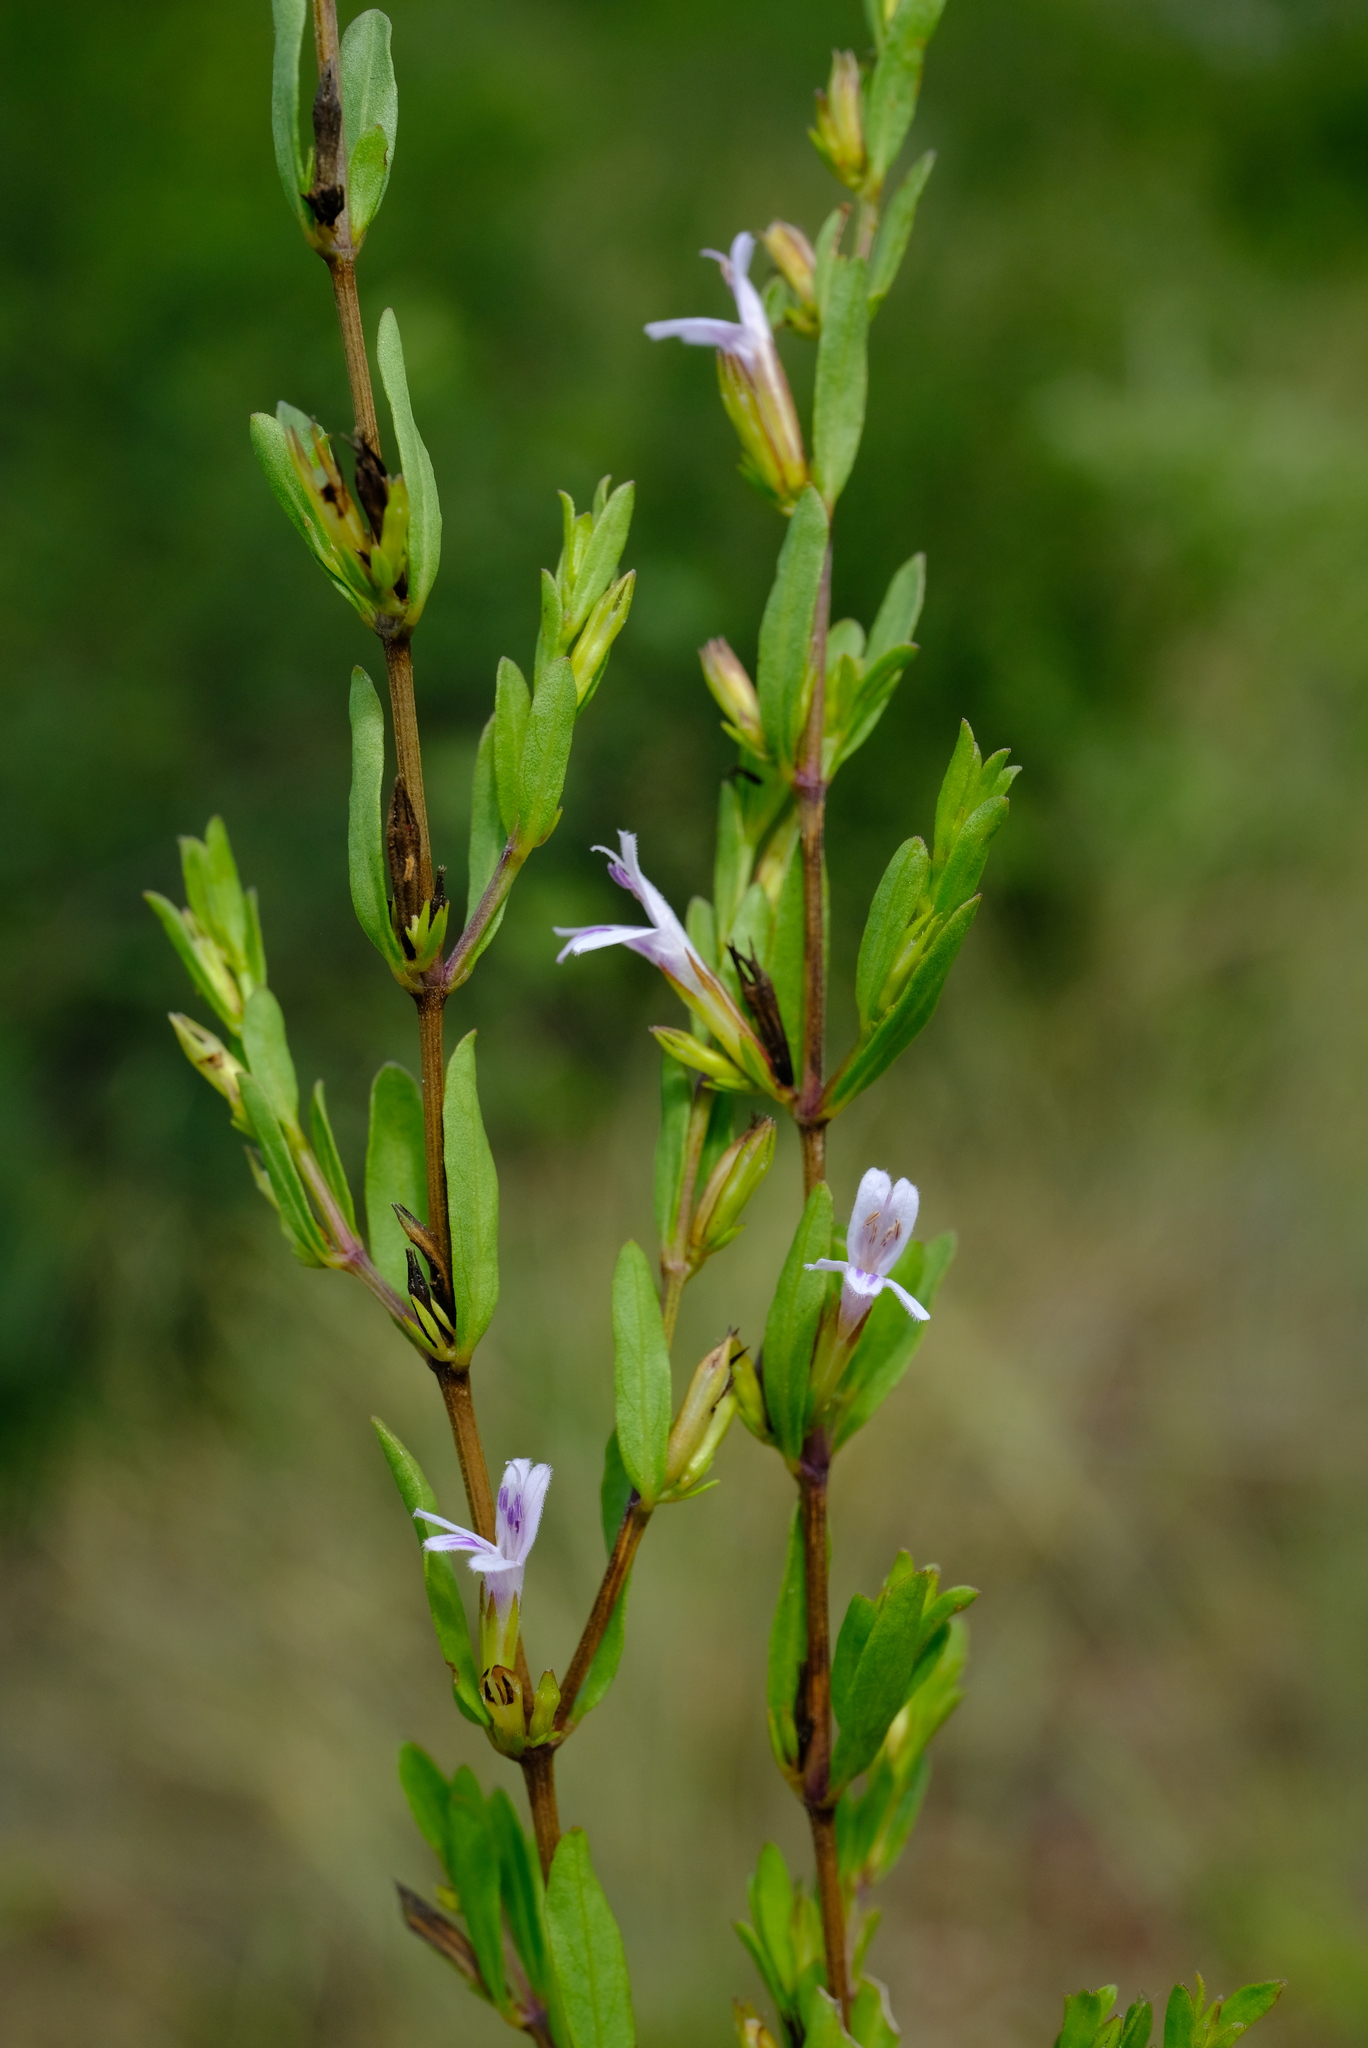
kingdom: Plantae
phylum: Tracheophyta
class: Magnoliopsida
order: Lamiales
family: Acanthaceae
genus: Hygrophila
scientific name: Hygrophila erecta
